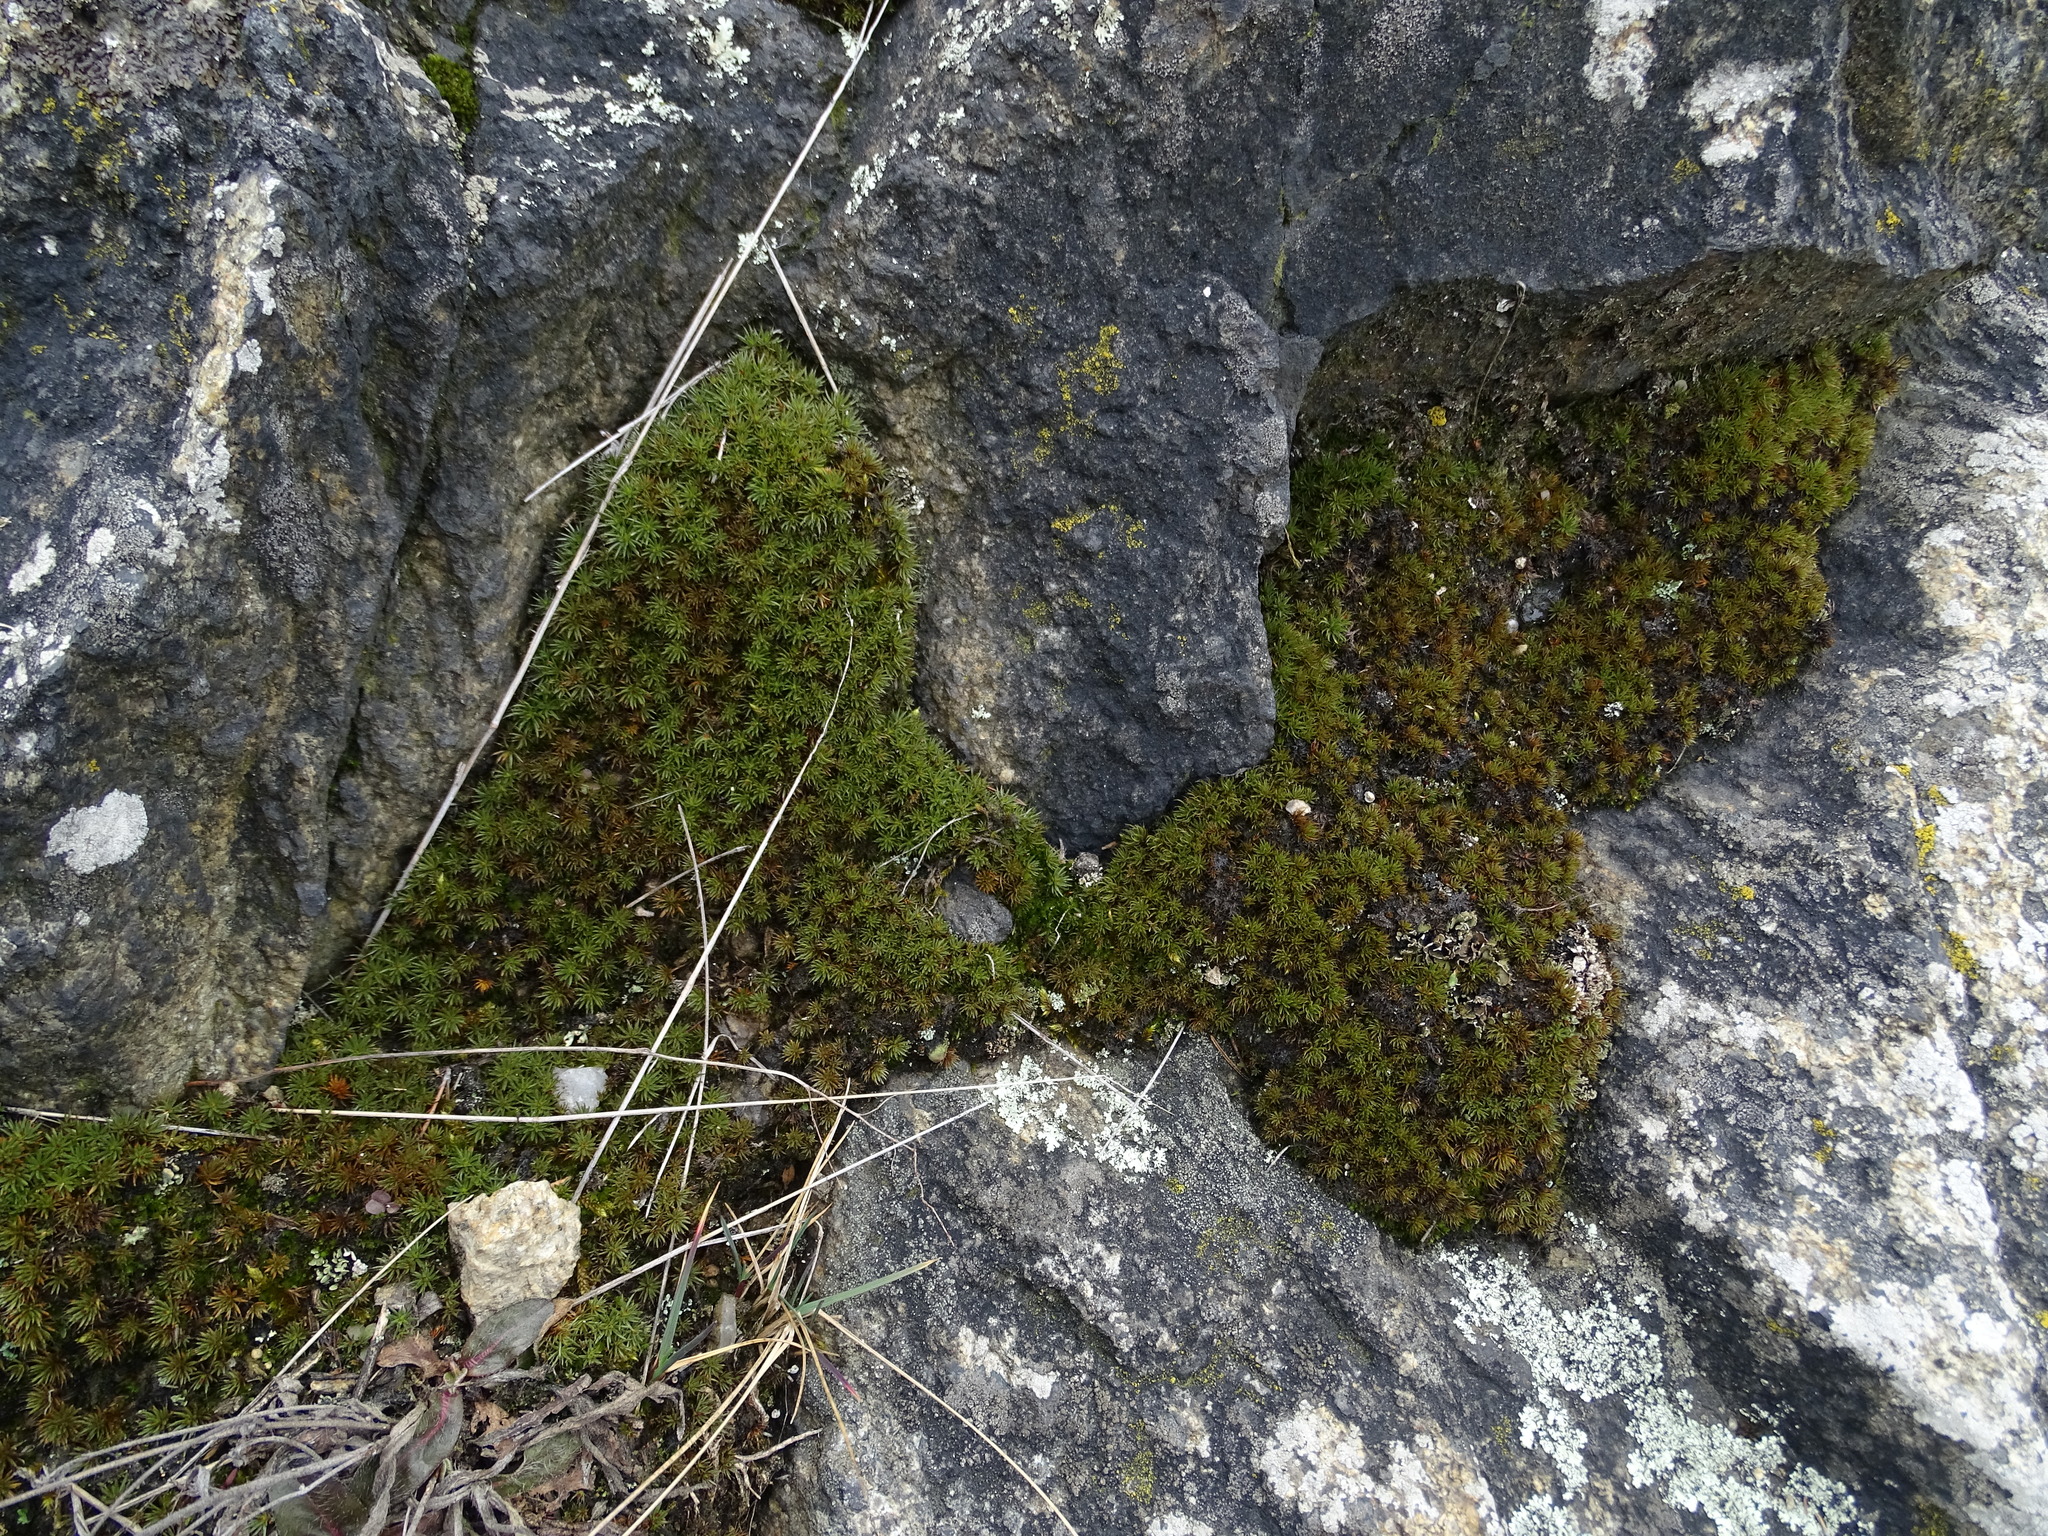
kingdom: Plantae
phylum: Bryophyta
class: Polytrichopsida
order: Polytrichales
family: Polytrichaceae
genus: Polytrichum
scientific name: Polytrichum piliferum
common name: Bristly haircap
